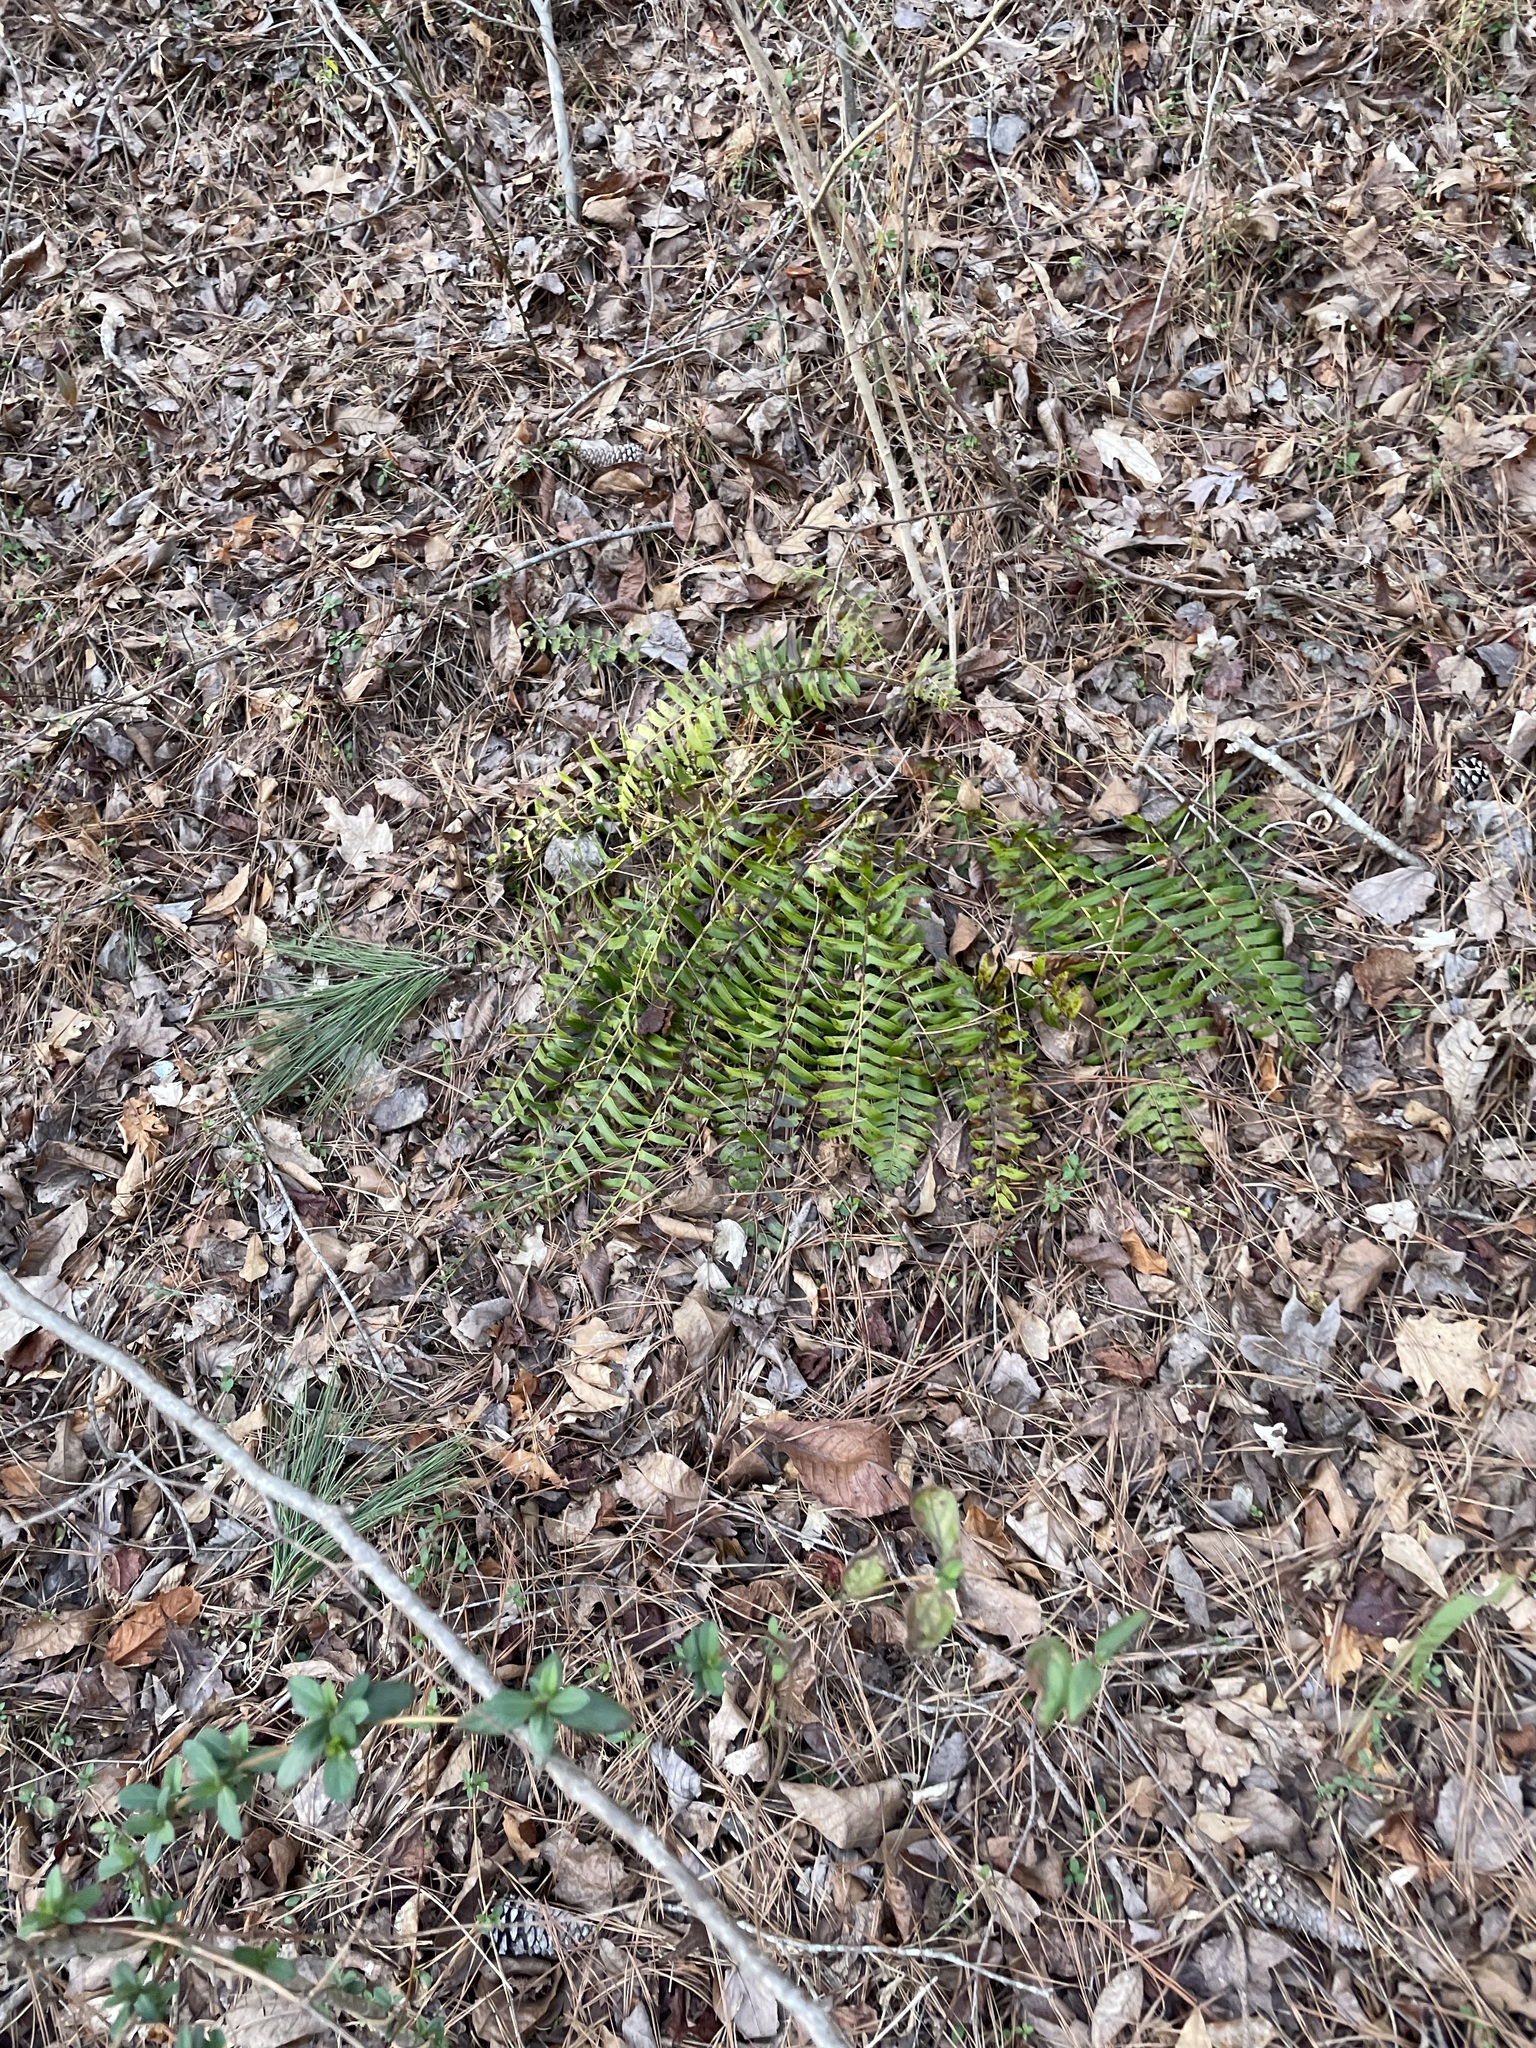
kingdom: Plantae
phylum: Tracheophyta
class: Polypodiopsida
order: Polypodiales
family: Dryopteridaceae
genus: Polystichum
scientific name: Polystichum acrostichoides
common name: Christmas fern
